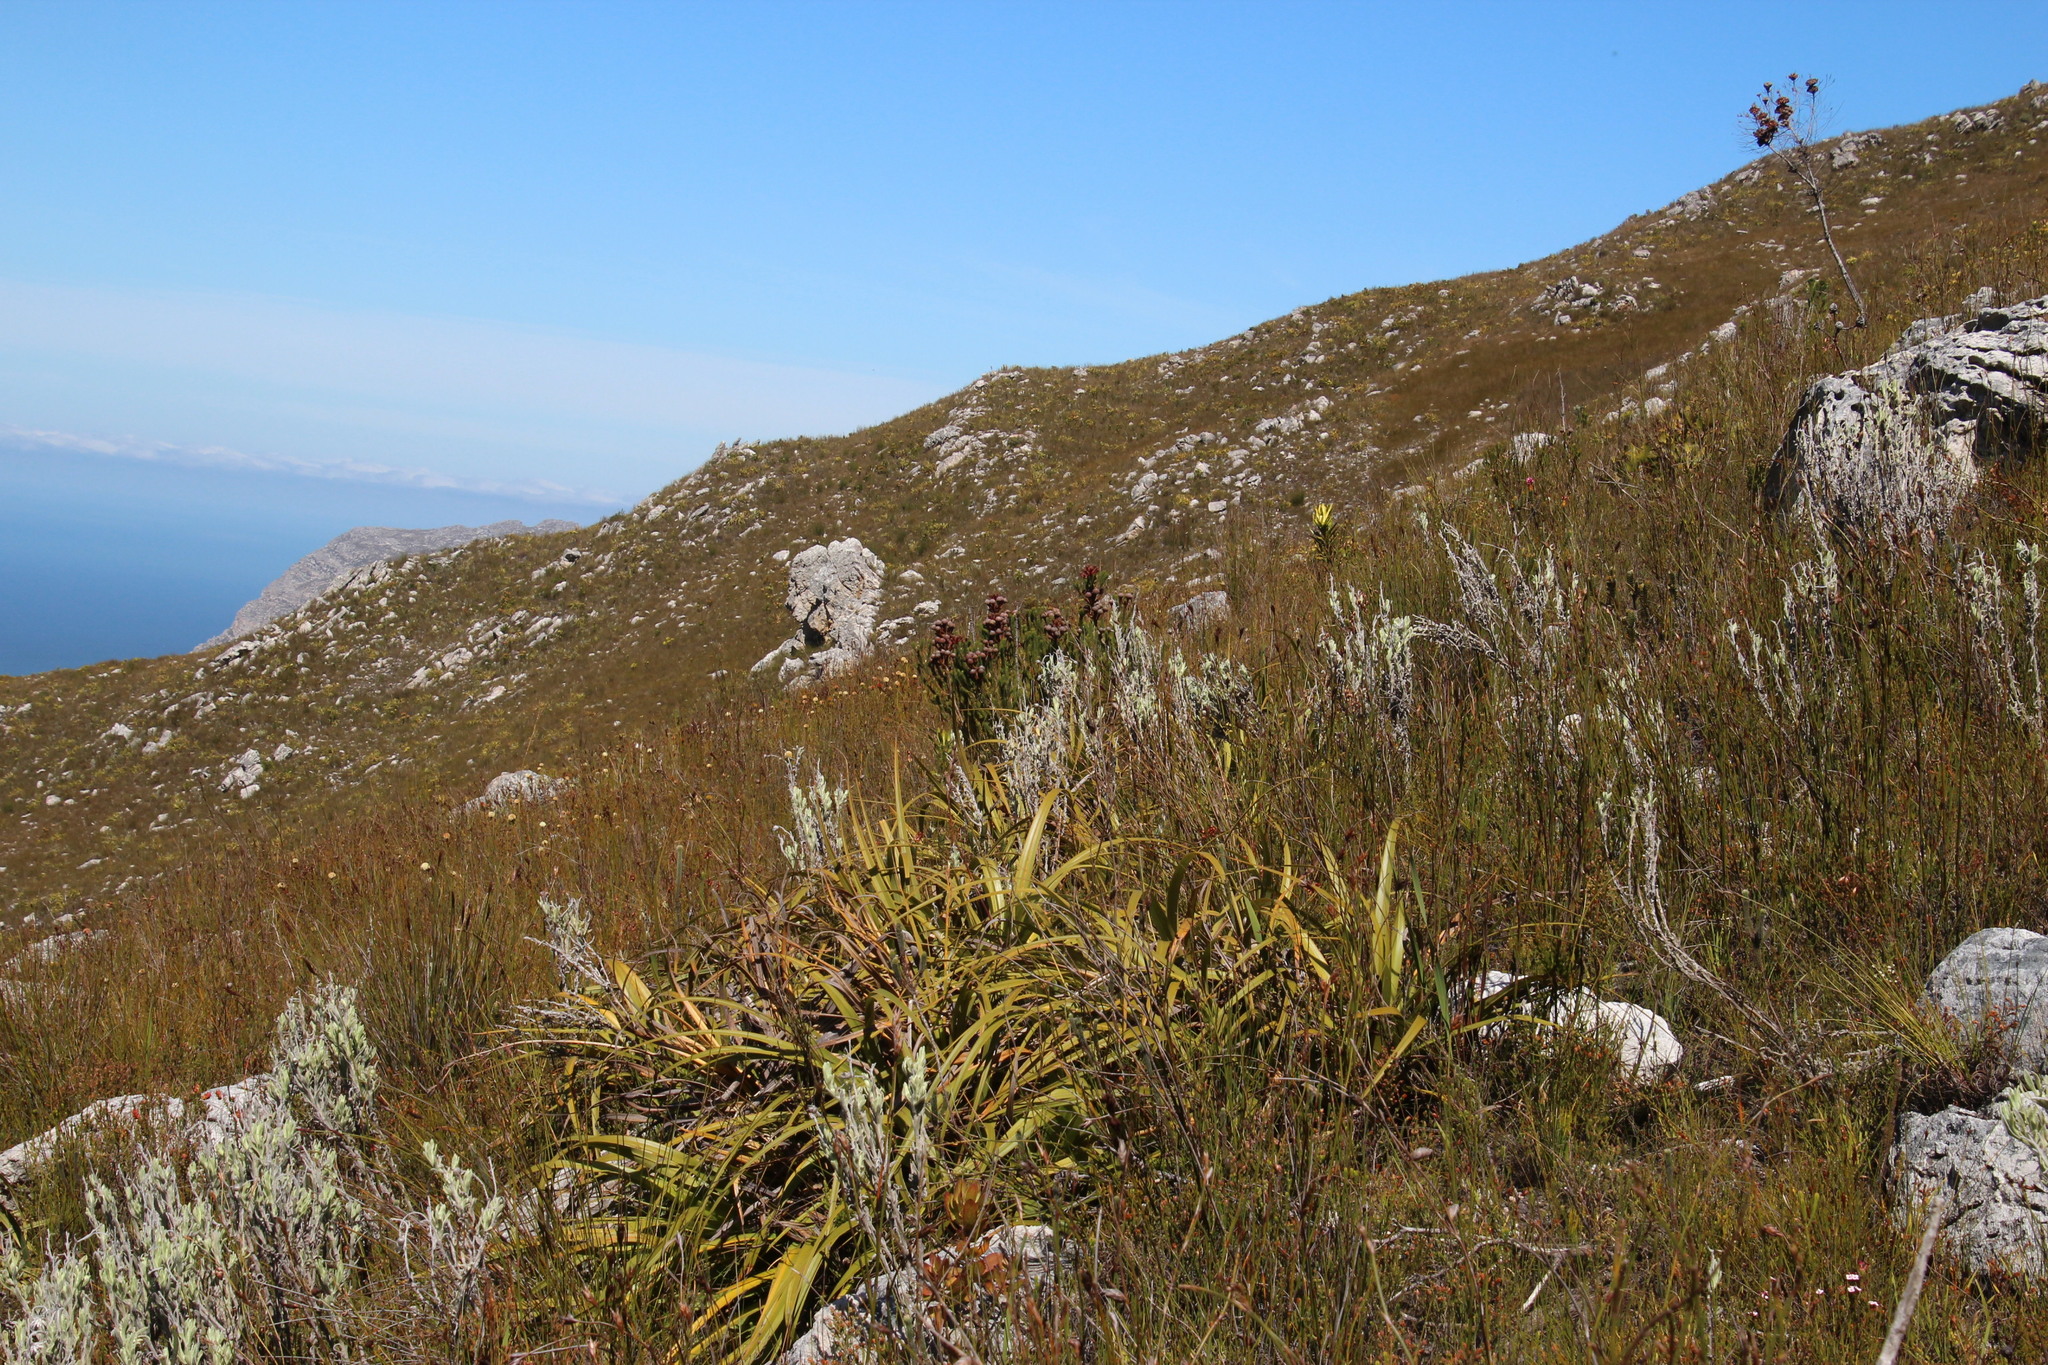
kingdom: Plantae
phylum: Tracheophyta
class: Magnoliopsida
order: Bruniales
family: Bruniaceae
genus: Berzelia
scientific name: Berzelia stokoei
